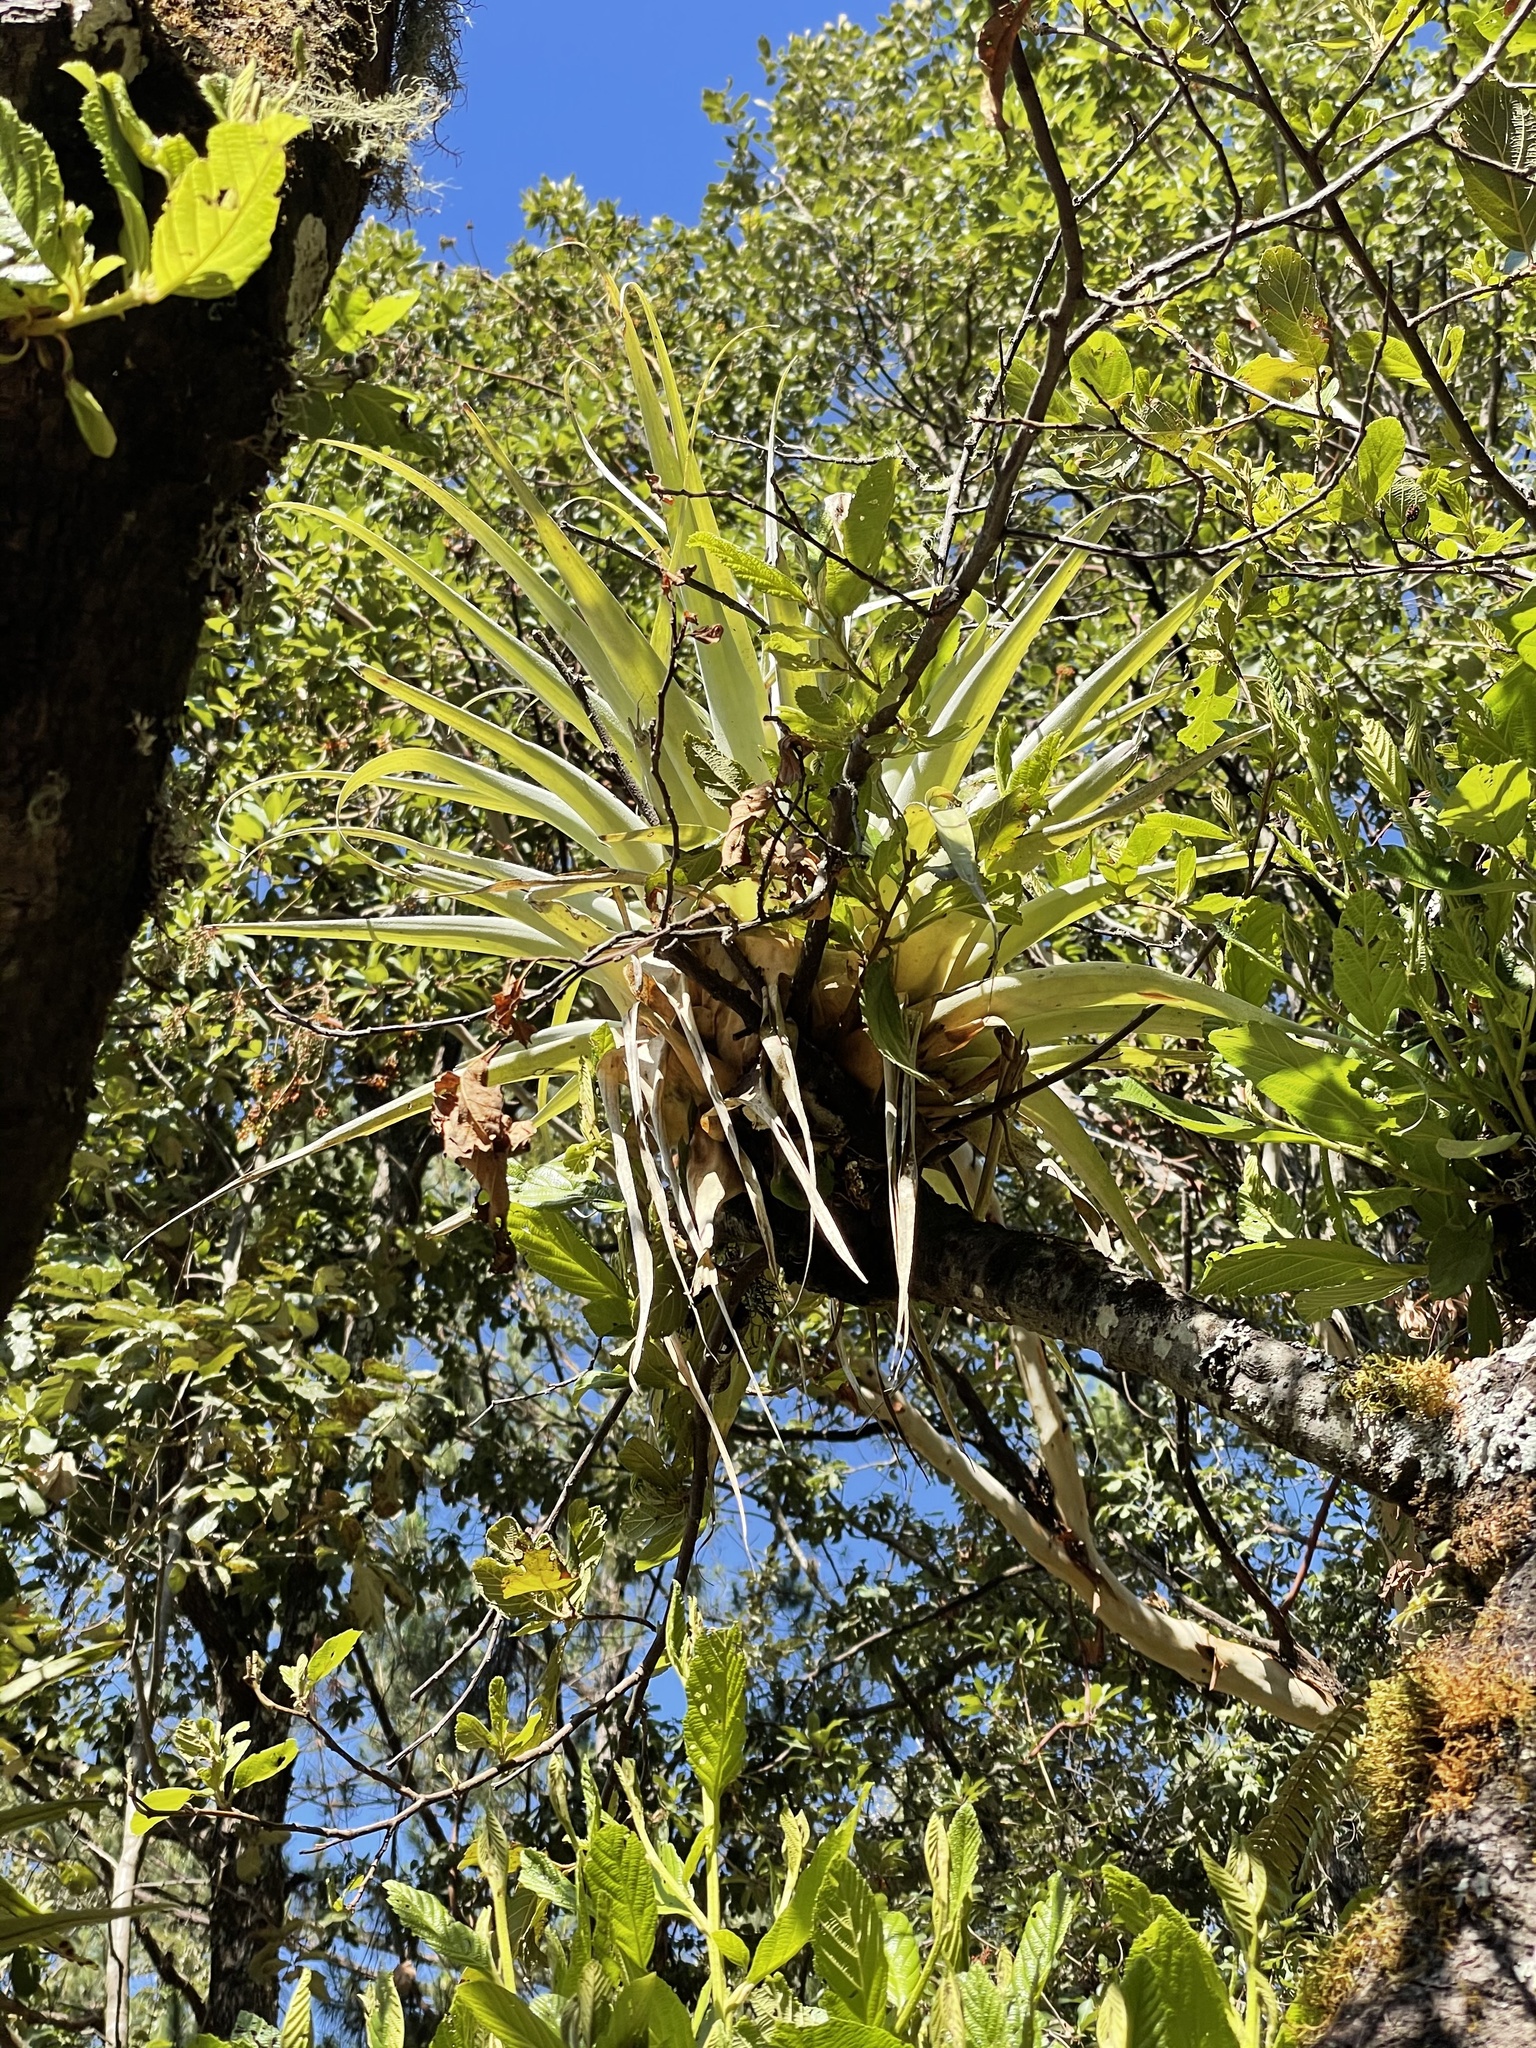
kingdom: Plantae
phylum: Tracheophyta
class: Liliopsida
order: Poales
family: Bromeliaceae
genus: Tillandsia
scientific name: Tillandsia borealis
